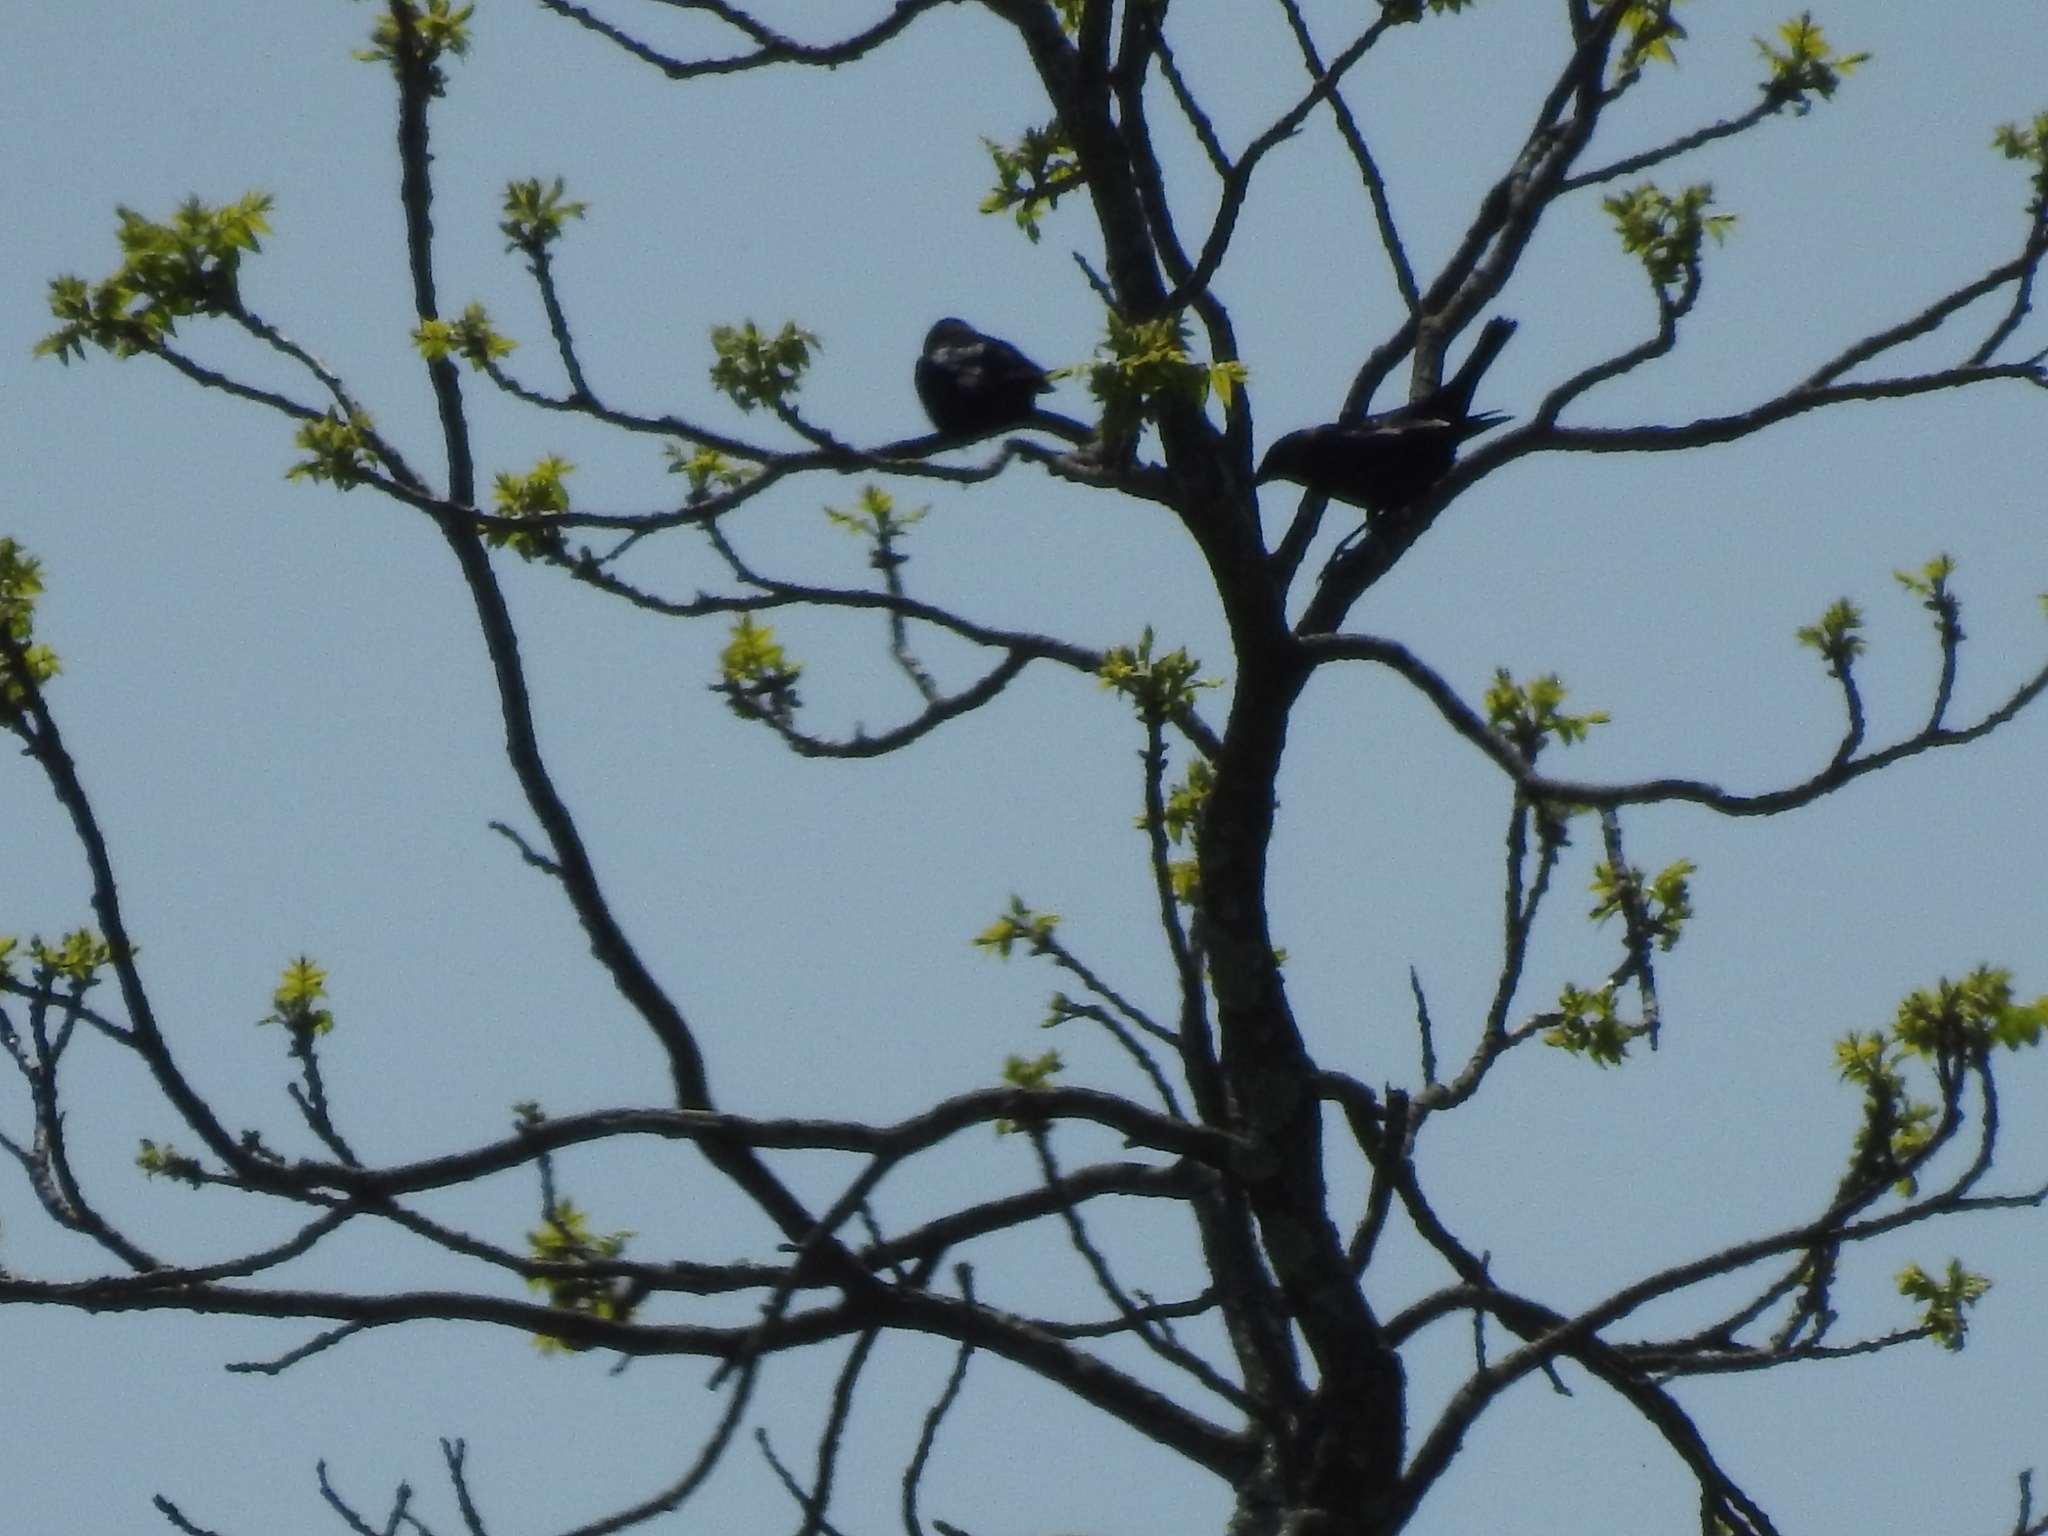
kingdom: Animalia
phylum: Chordata
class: Aves
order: Passeriformes
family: Icteridae
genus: Molothrus
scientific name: Molothrus ater
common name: Brown-headed cowbird
